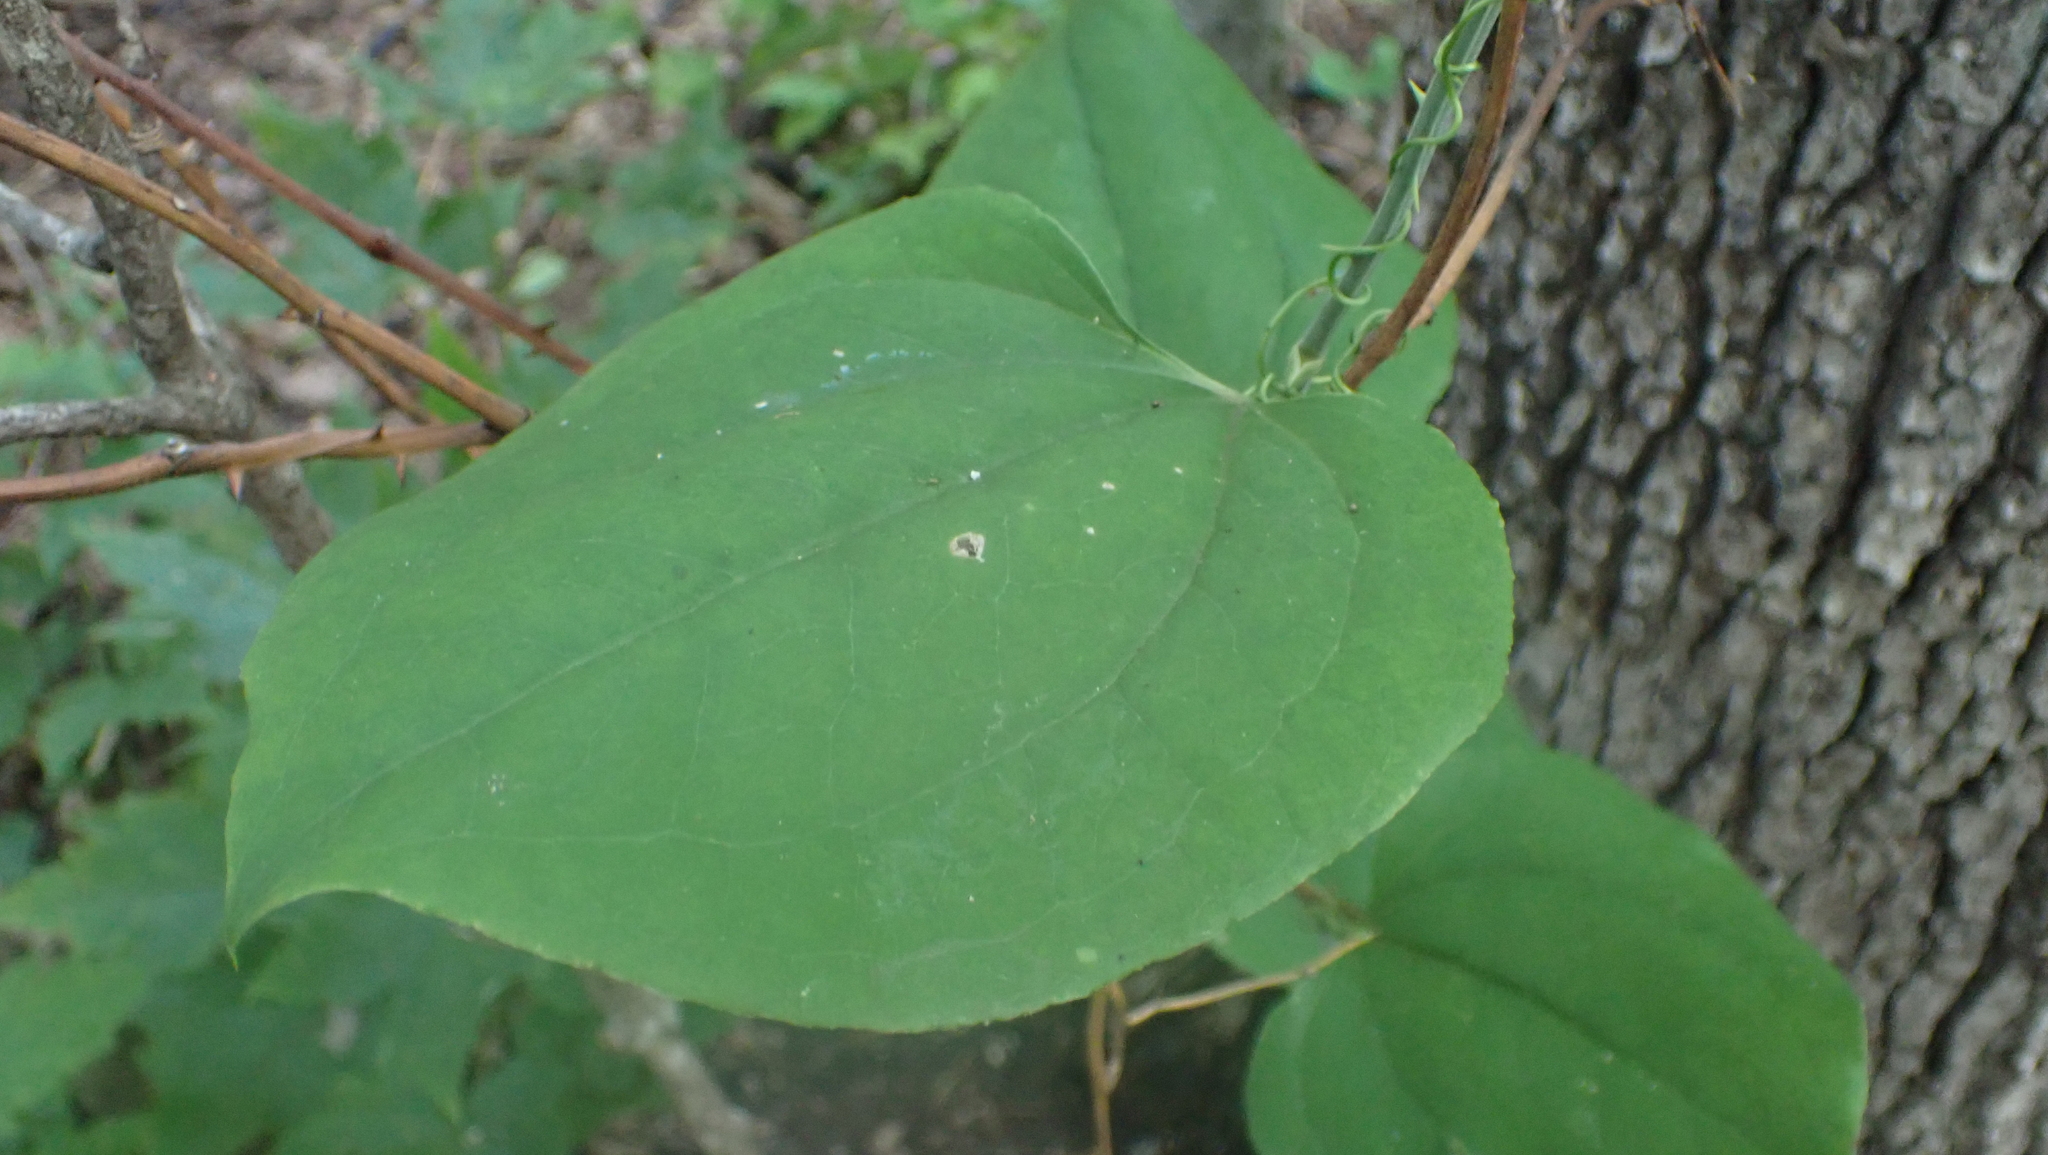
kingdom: Plantae
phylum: Tracheophyta
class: Liliopsida
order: Liliales
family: Smilacaceae
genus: Smilax
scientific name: Smilax rotundifolia
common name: Bullbriar
